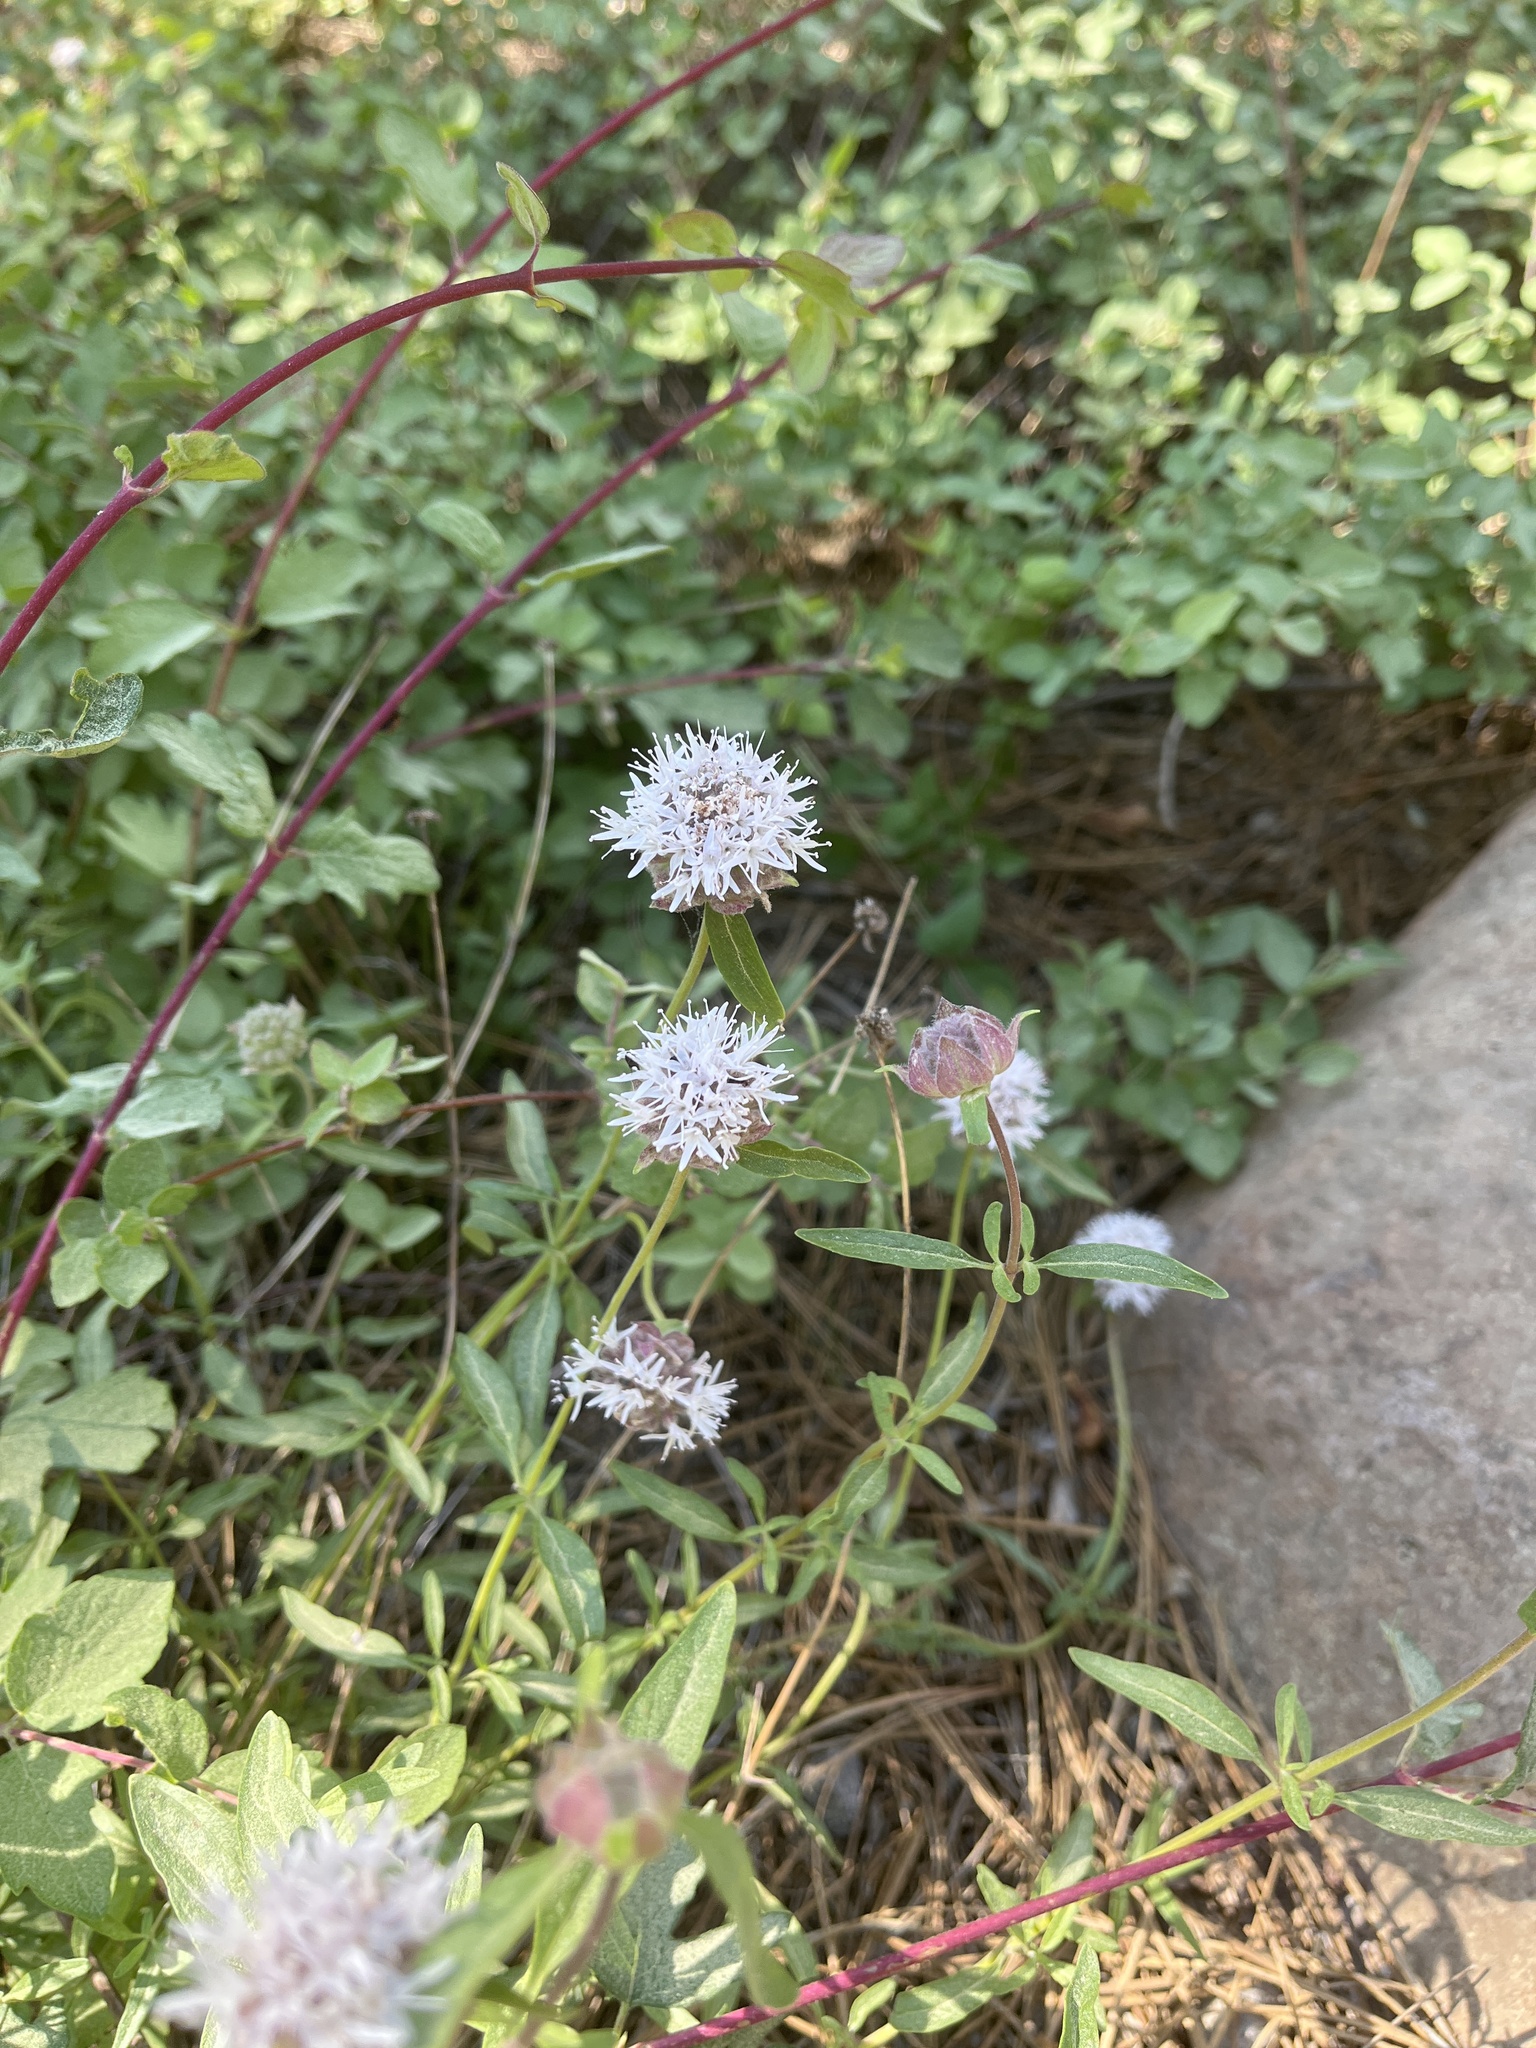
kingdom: Plantae
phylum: Tracheophyta
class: Magnoliopsida
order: Lamiales
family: Lamiaceae
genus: Monardella
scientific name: Monardella odoratissima
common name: Pacific monardella
